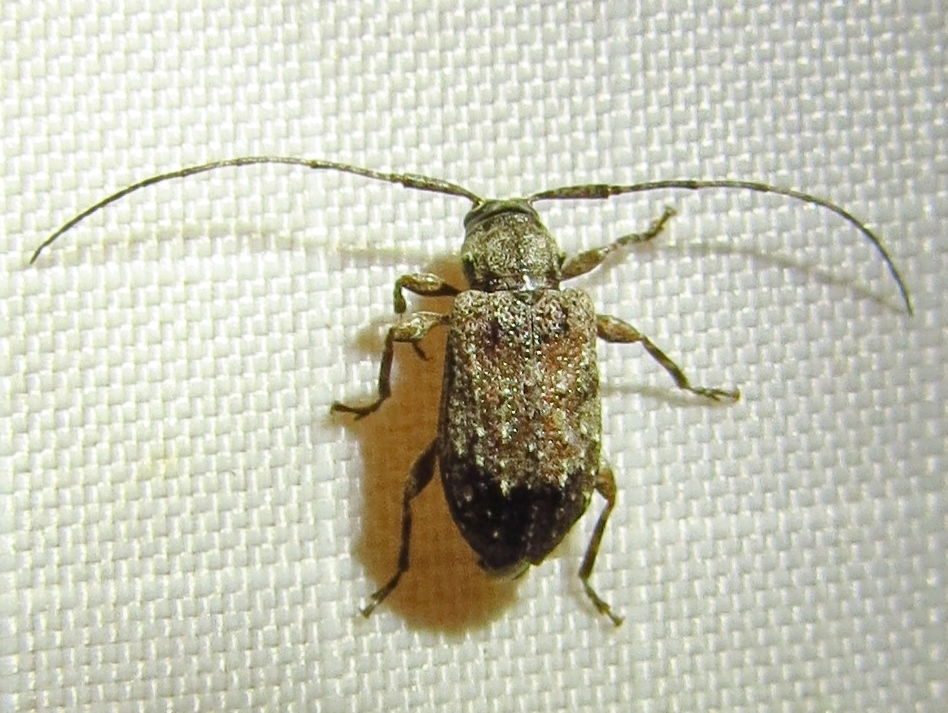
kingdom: Animalia
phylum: Arthropoda
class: Insecta
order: Coleoptera
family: Cerambycidae
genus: Astylopsis
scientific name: Astylopsis sexguttata
